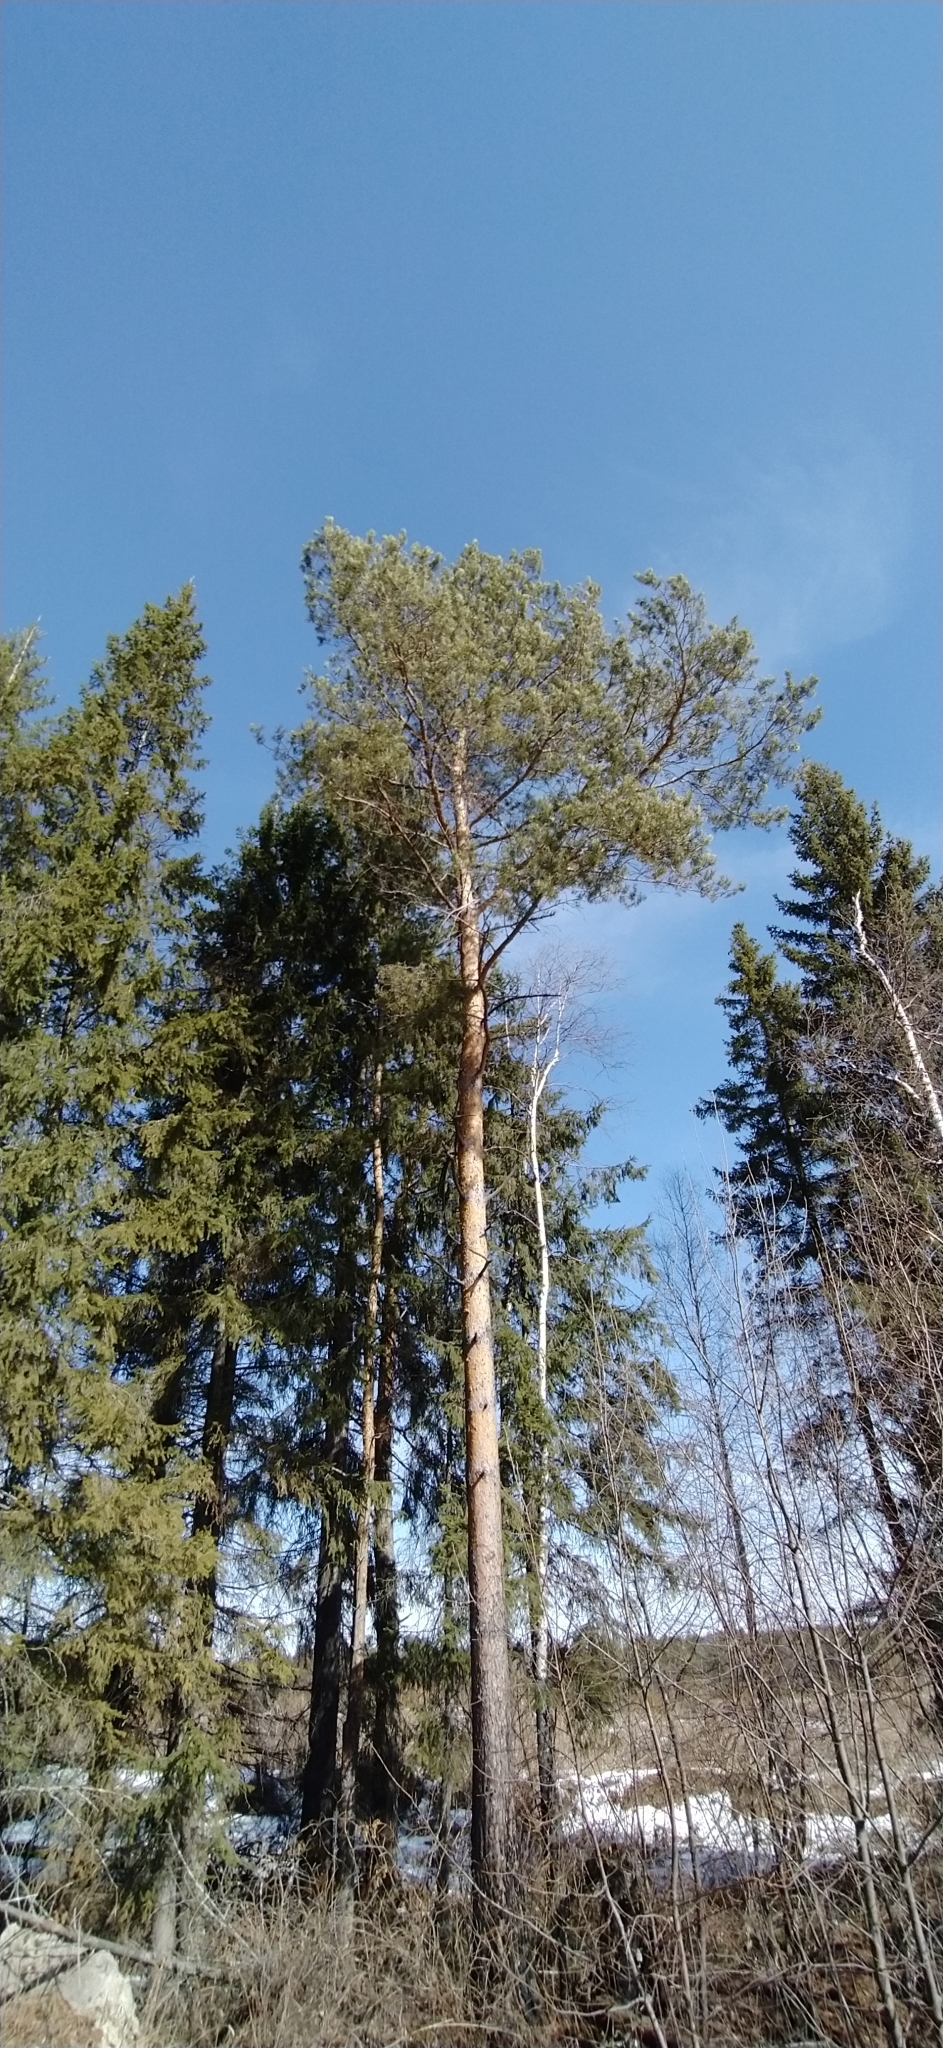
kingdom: Plantae
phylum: Tracheophyta
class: Pinopsida
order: Pinales
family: Pinaceae
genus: Pinus
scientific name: Pinus sylvestris
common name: Scots pine
